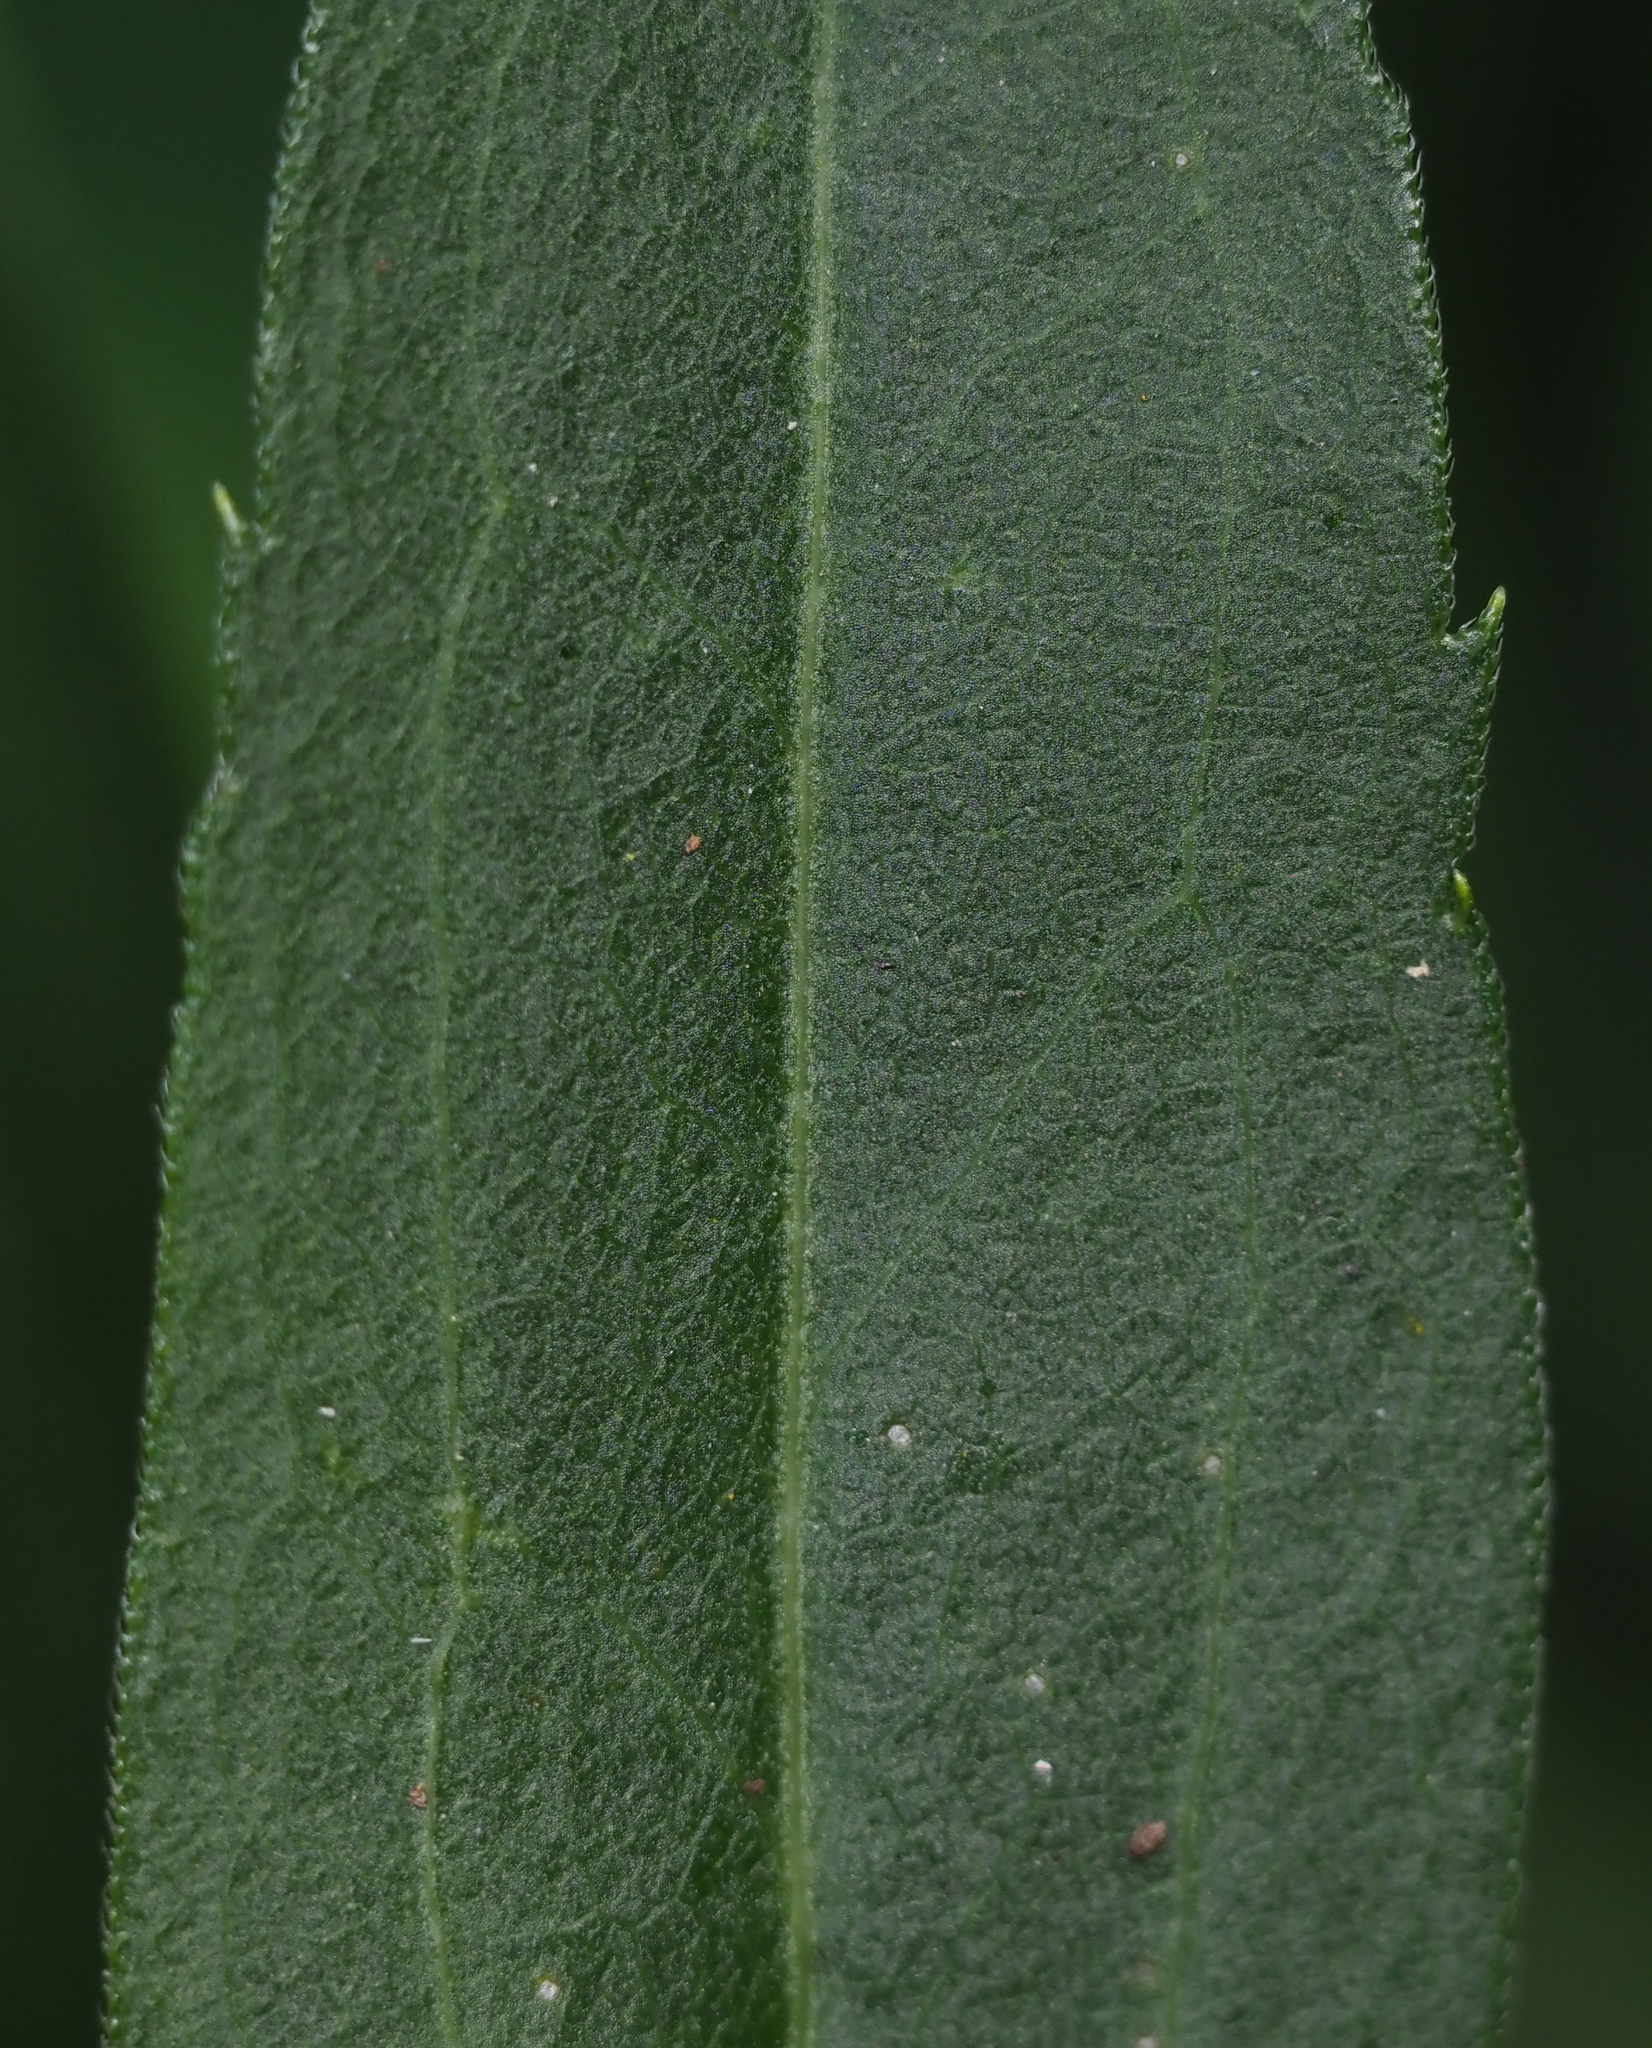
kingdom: Plantae
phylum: Tracheophyta
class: Magnoliopsida
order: Asterales
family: Asteraceae
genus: Solidago
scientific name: Solidago gigantea
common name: Giant goldenrod
